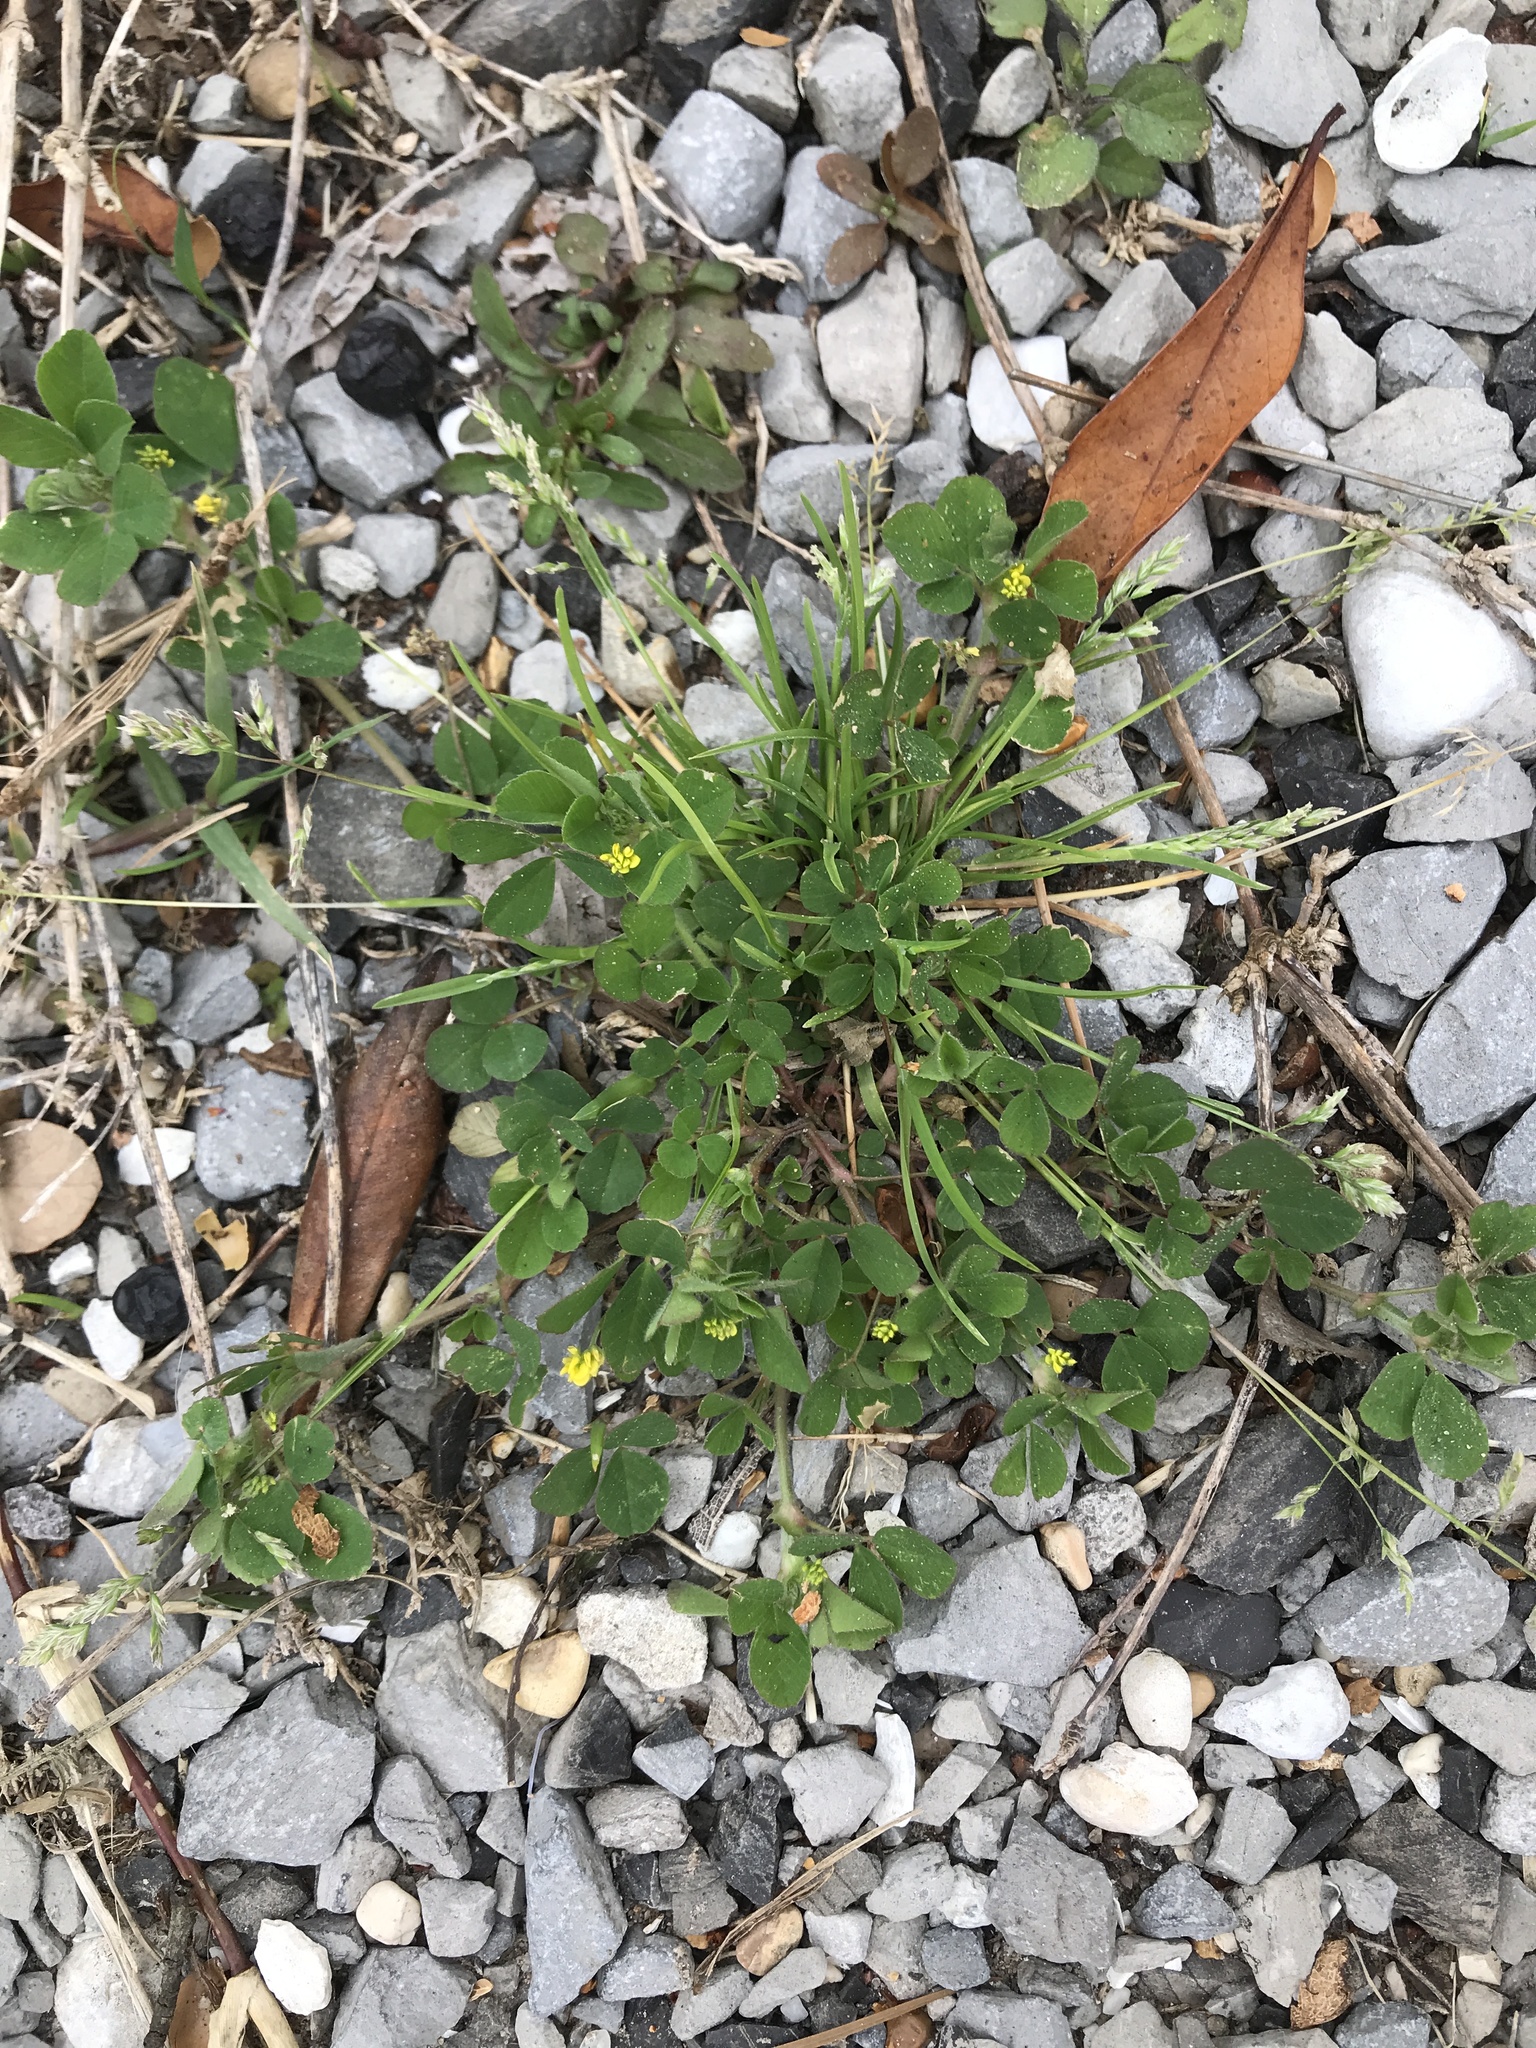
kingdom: Plantae
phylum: Tracheophyta
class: Magnoliopsida
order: Fabales
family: Fabaceae
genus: Medicago
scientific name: Medicago lupulina
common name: Black medick
